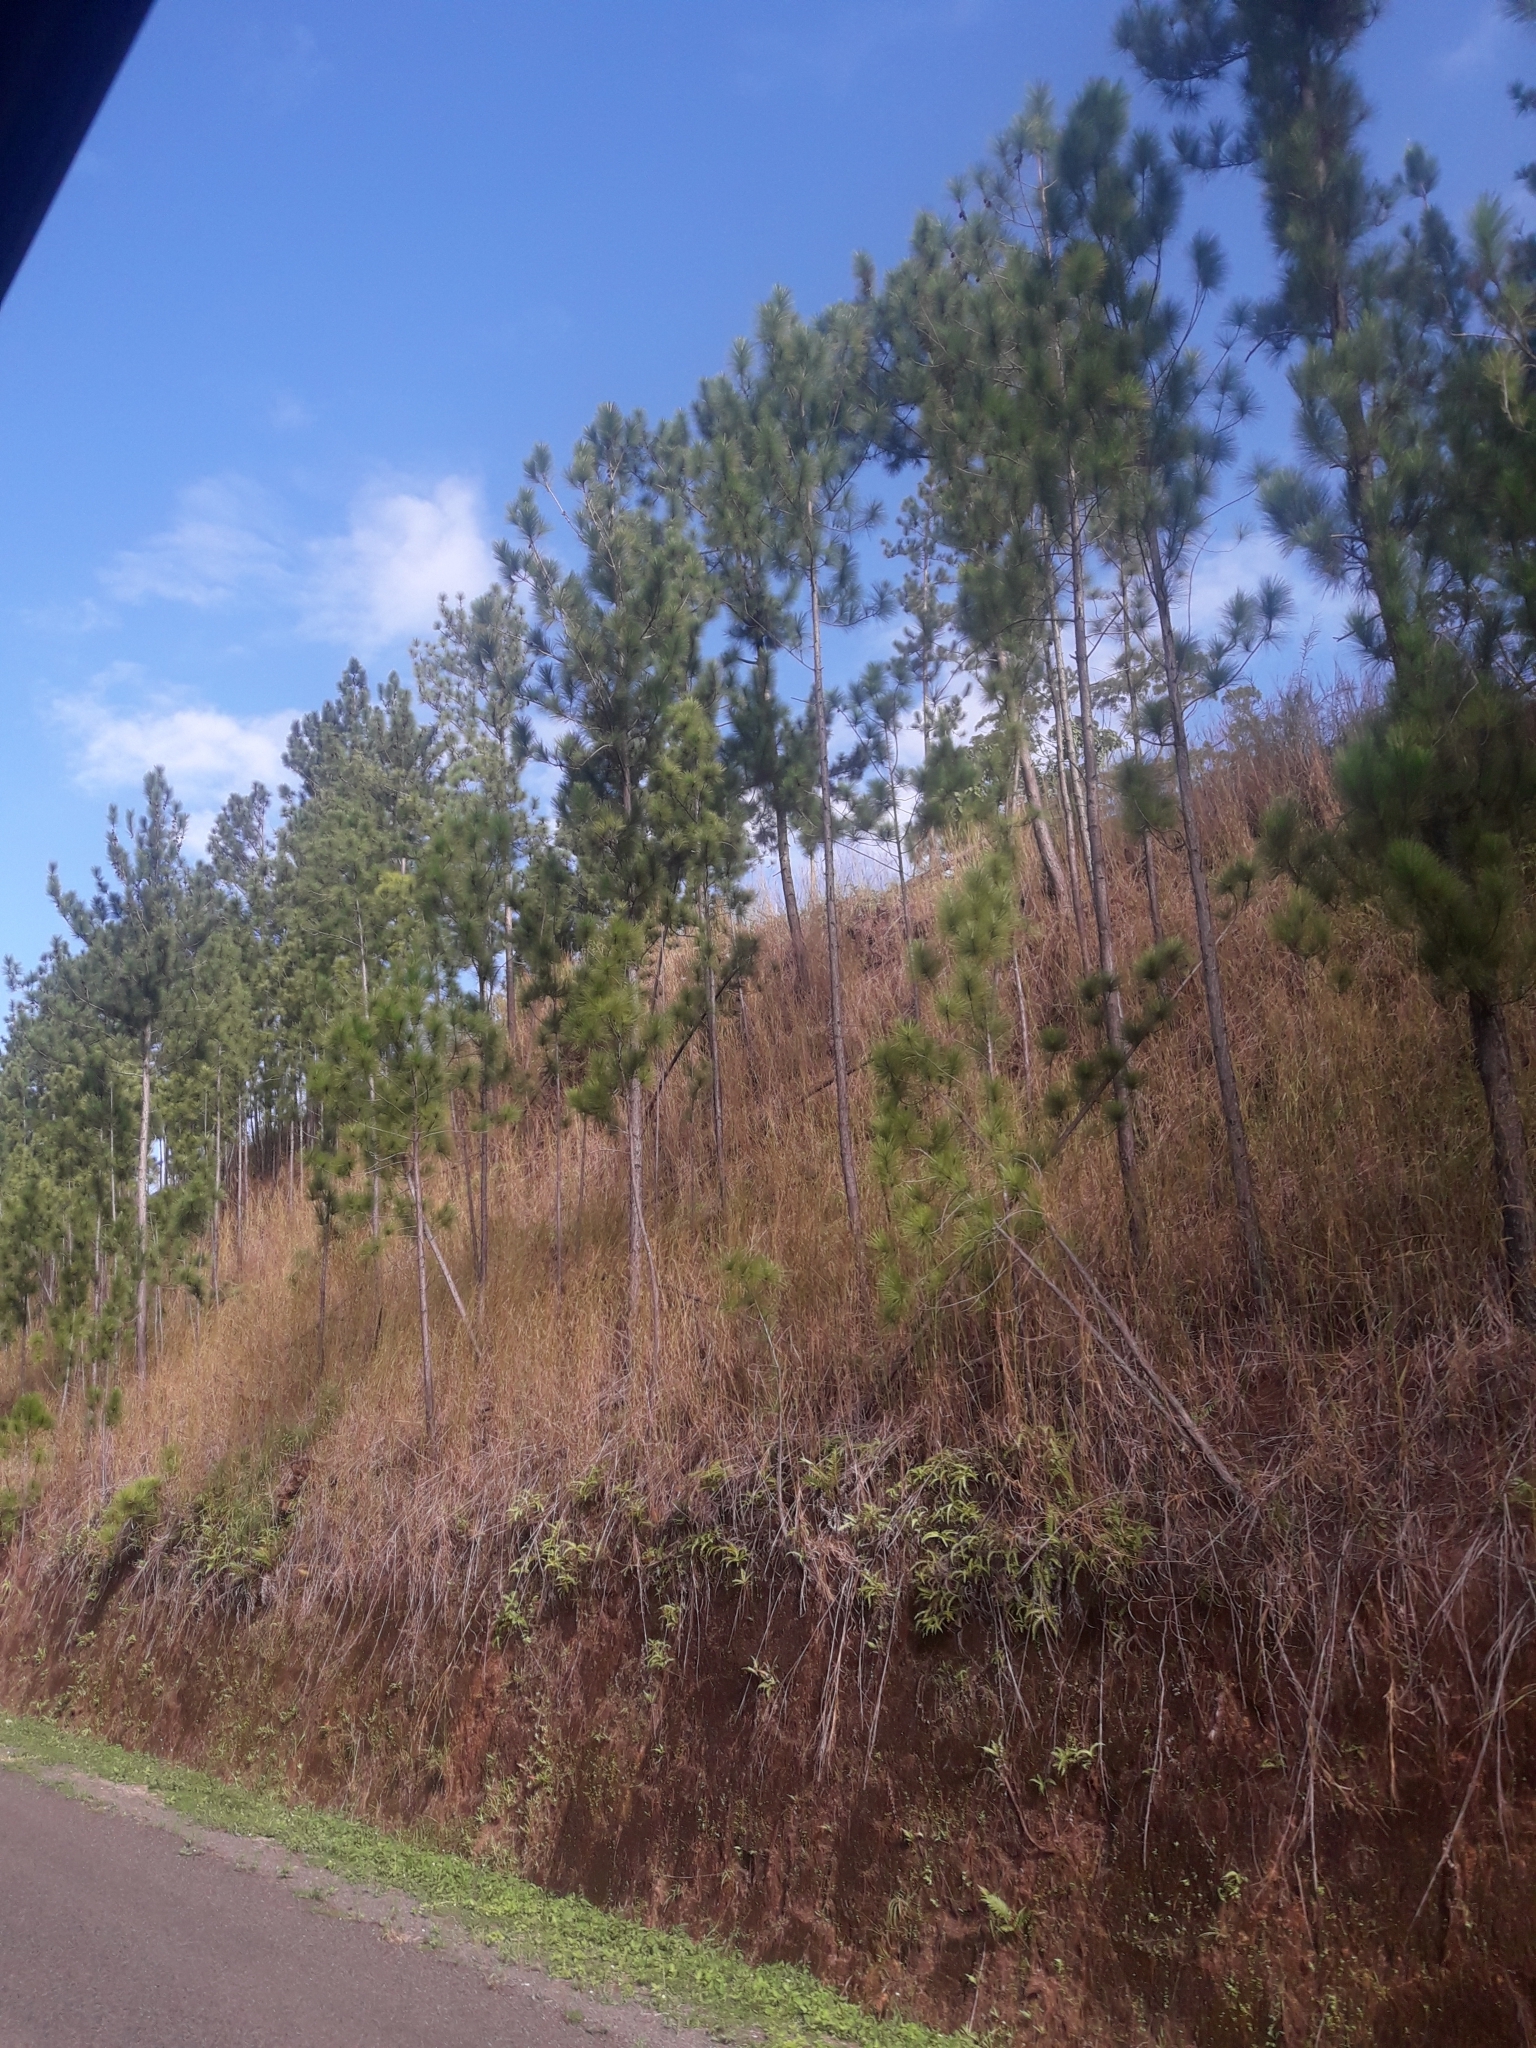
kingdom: Plantae
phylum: Tracheophyta
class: Pinopsida
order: Pinales
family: Pinaceae
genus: Pinus
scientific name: Pinus caribaea
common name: Caribbean pine
